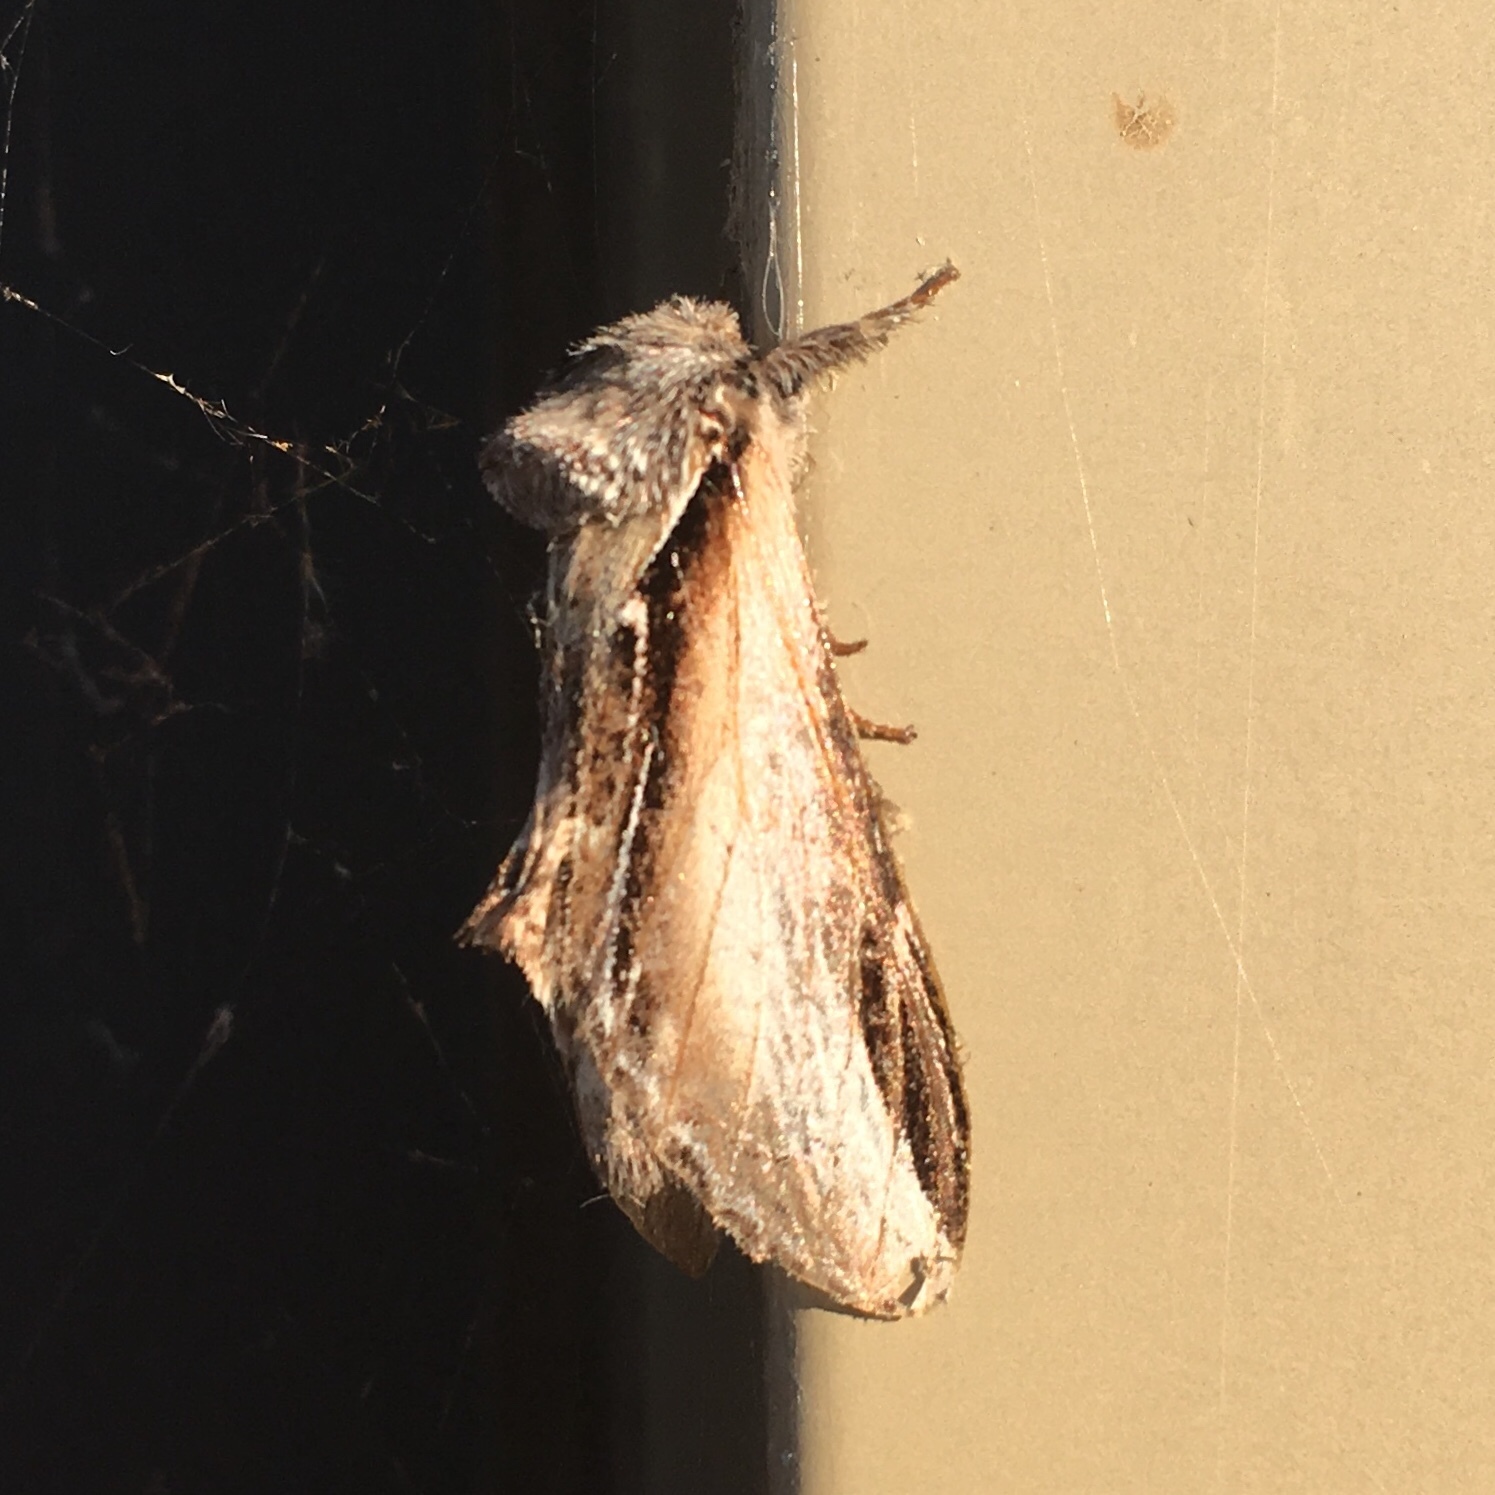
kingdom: Animalia
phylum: Arthropoda
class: Insecta
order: Lepidoptera
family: Notodontidae
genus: Pheosia
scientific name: Pheosia rimosa
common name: Black-rimmed prominent
